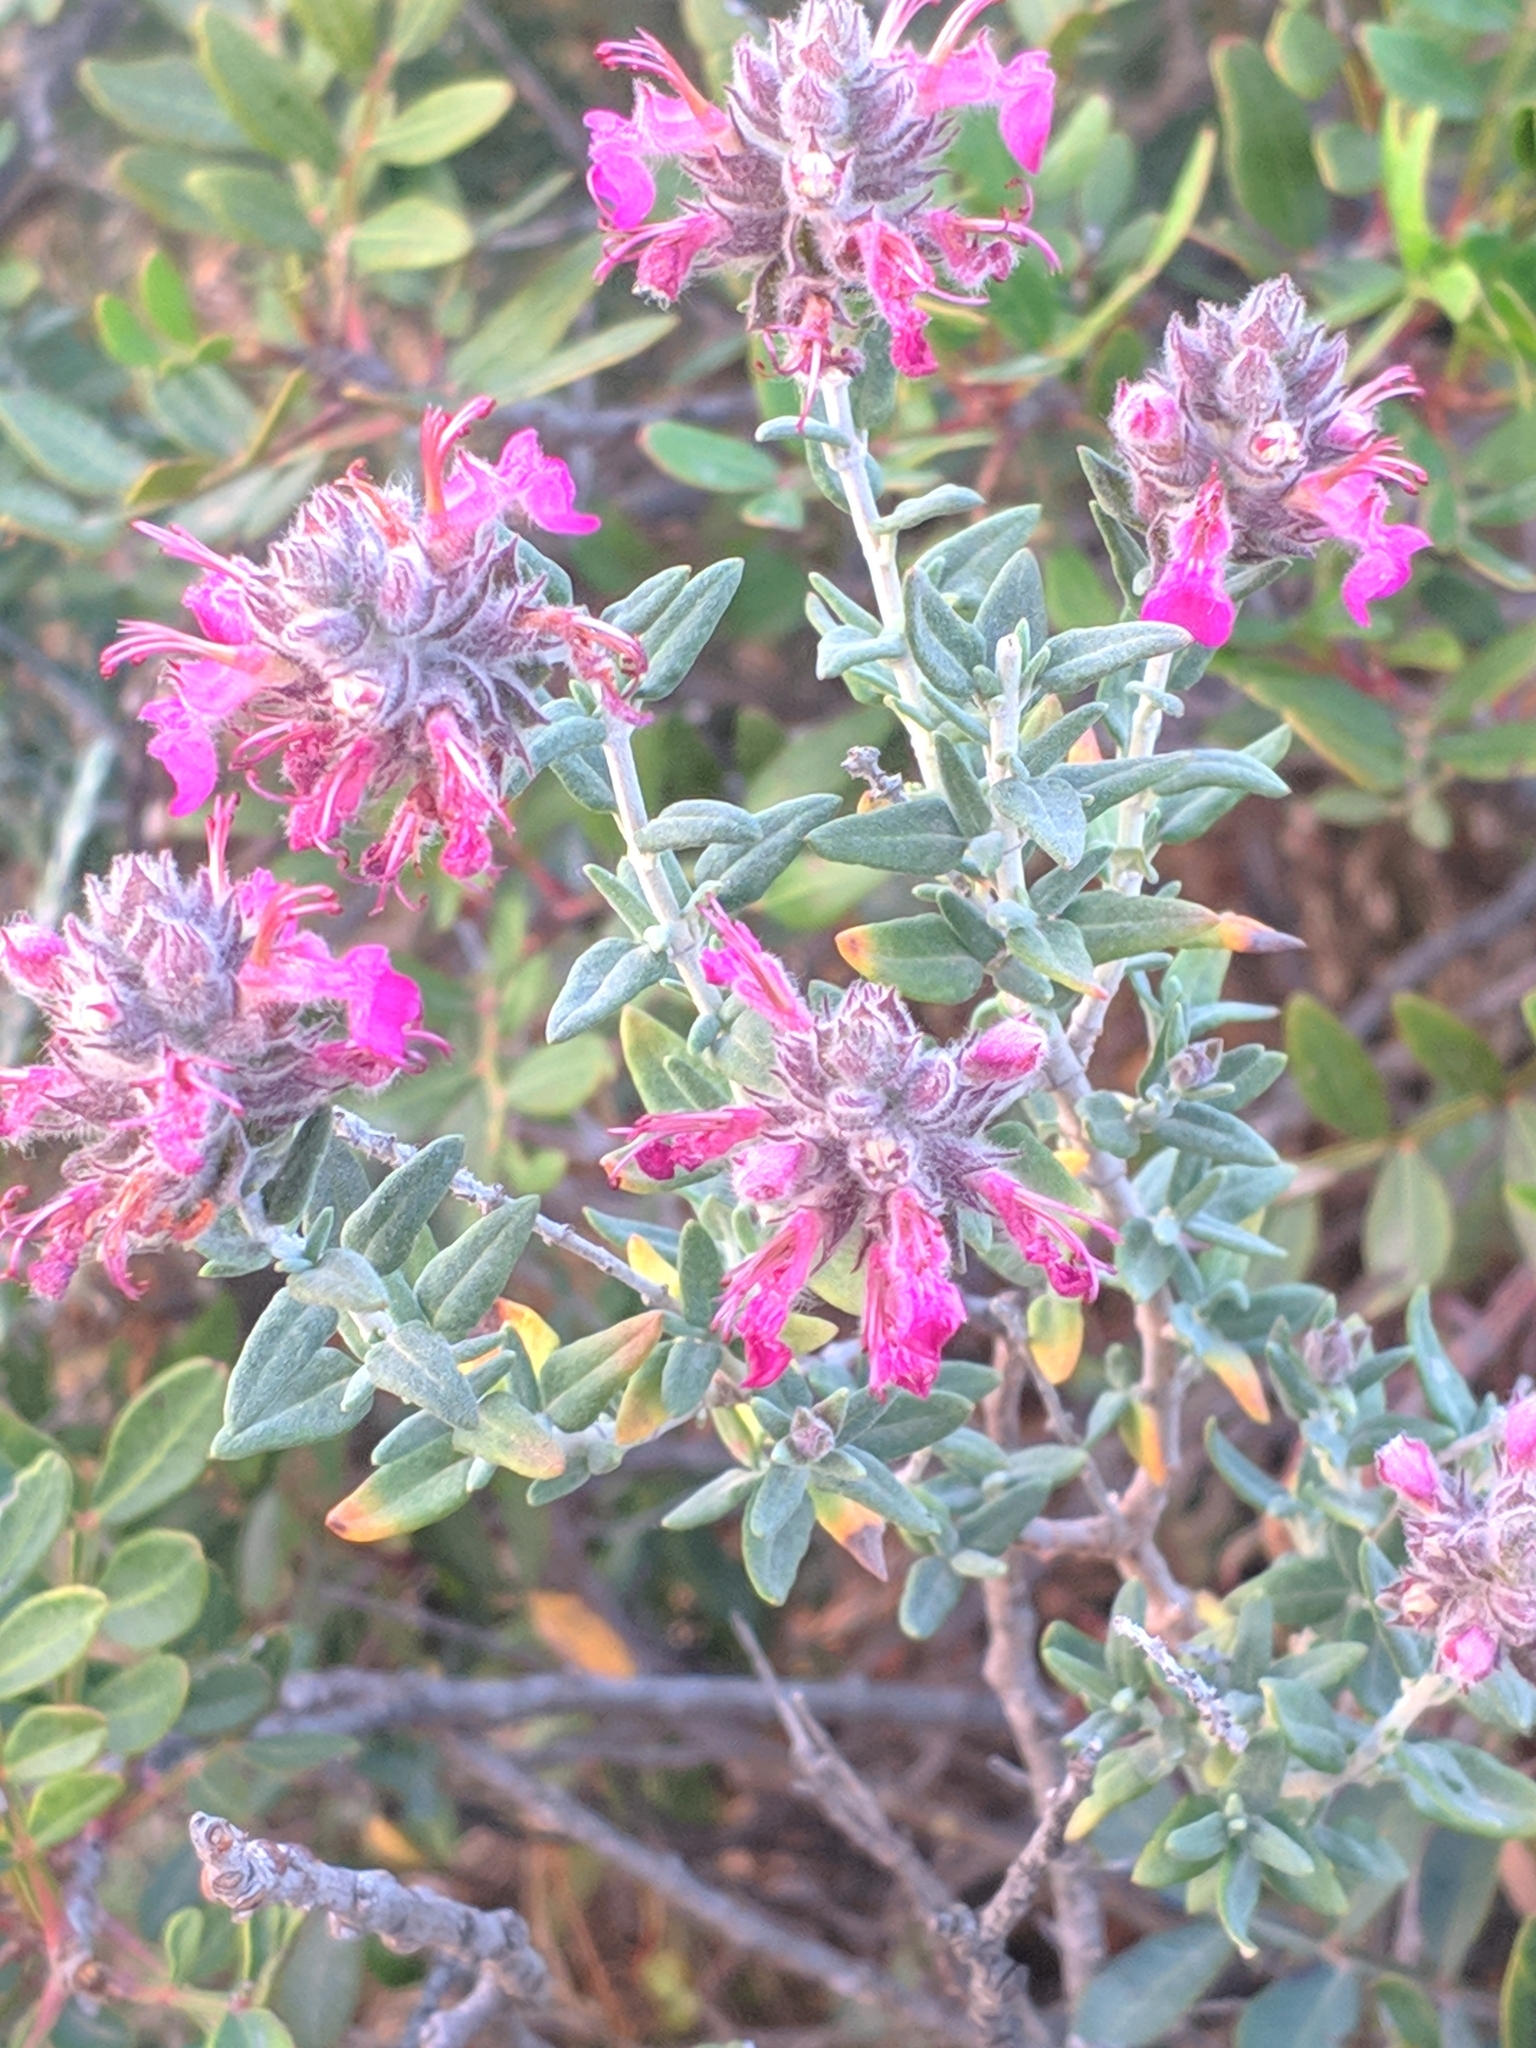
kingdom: Plantae
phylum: Tracheophyta
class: Magnoliopsida
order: Lamiales
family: Lamiaceae
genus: Teucrium
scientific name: Teucrium marum
